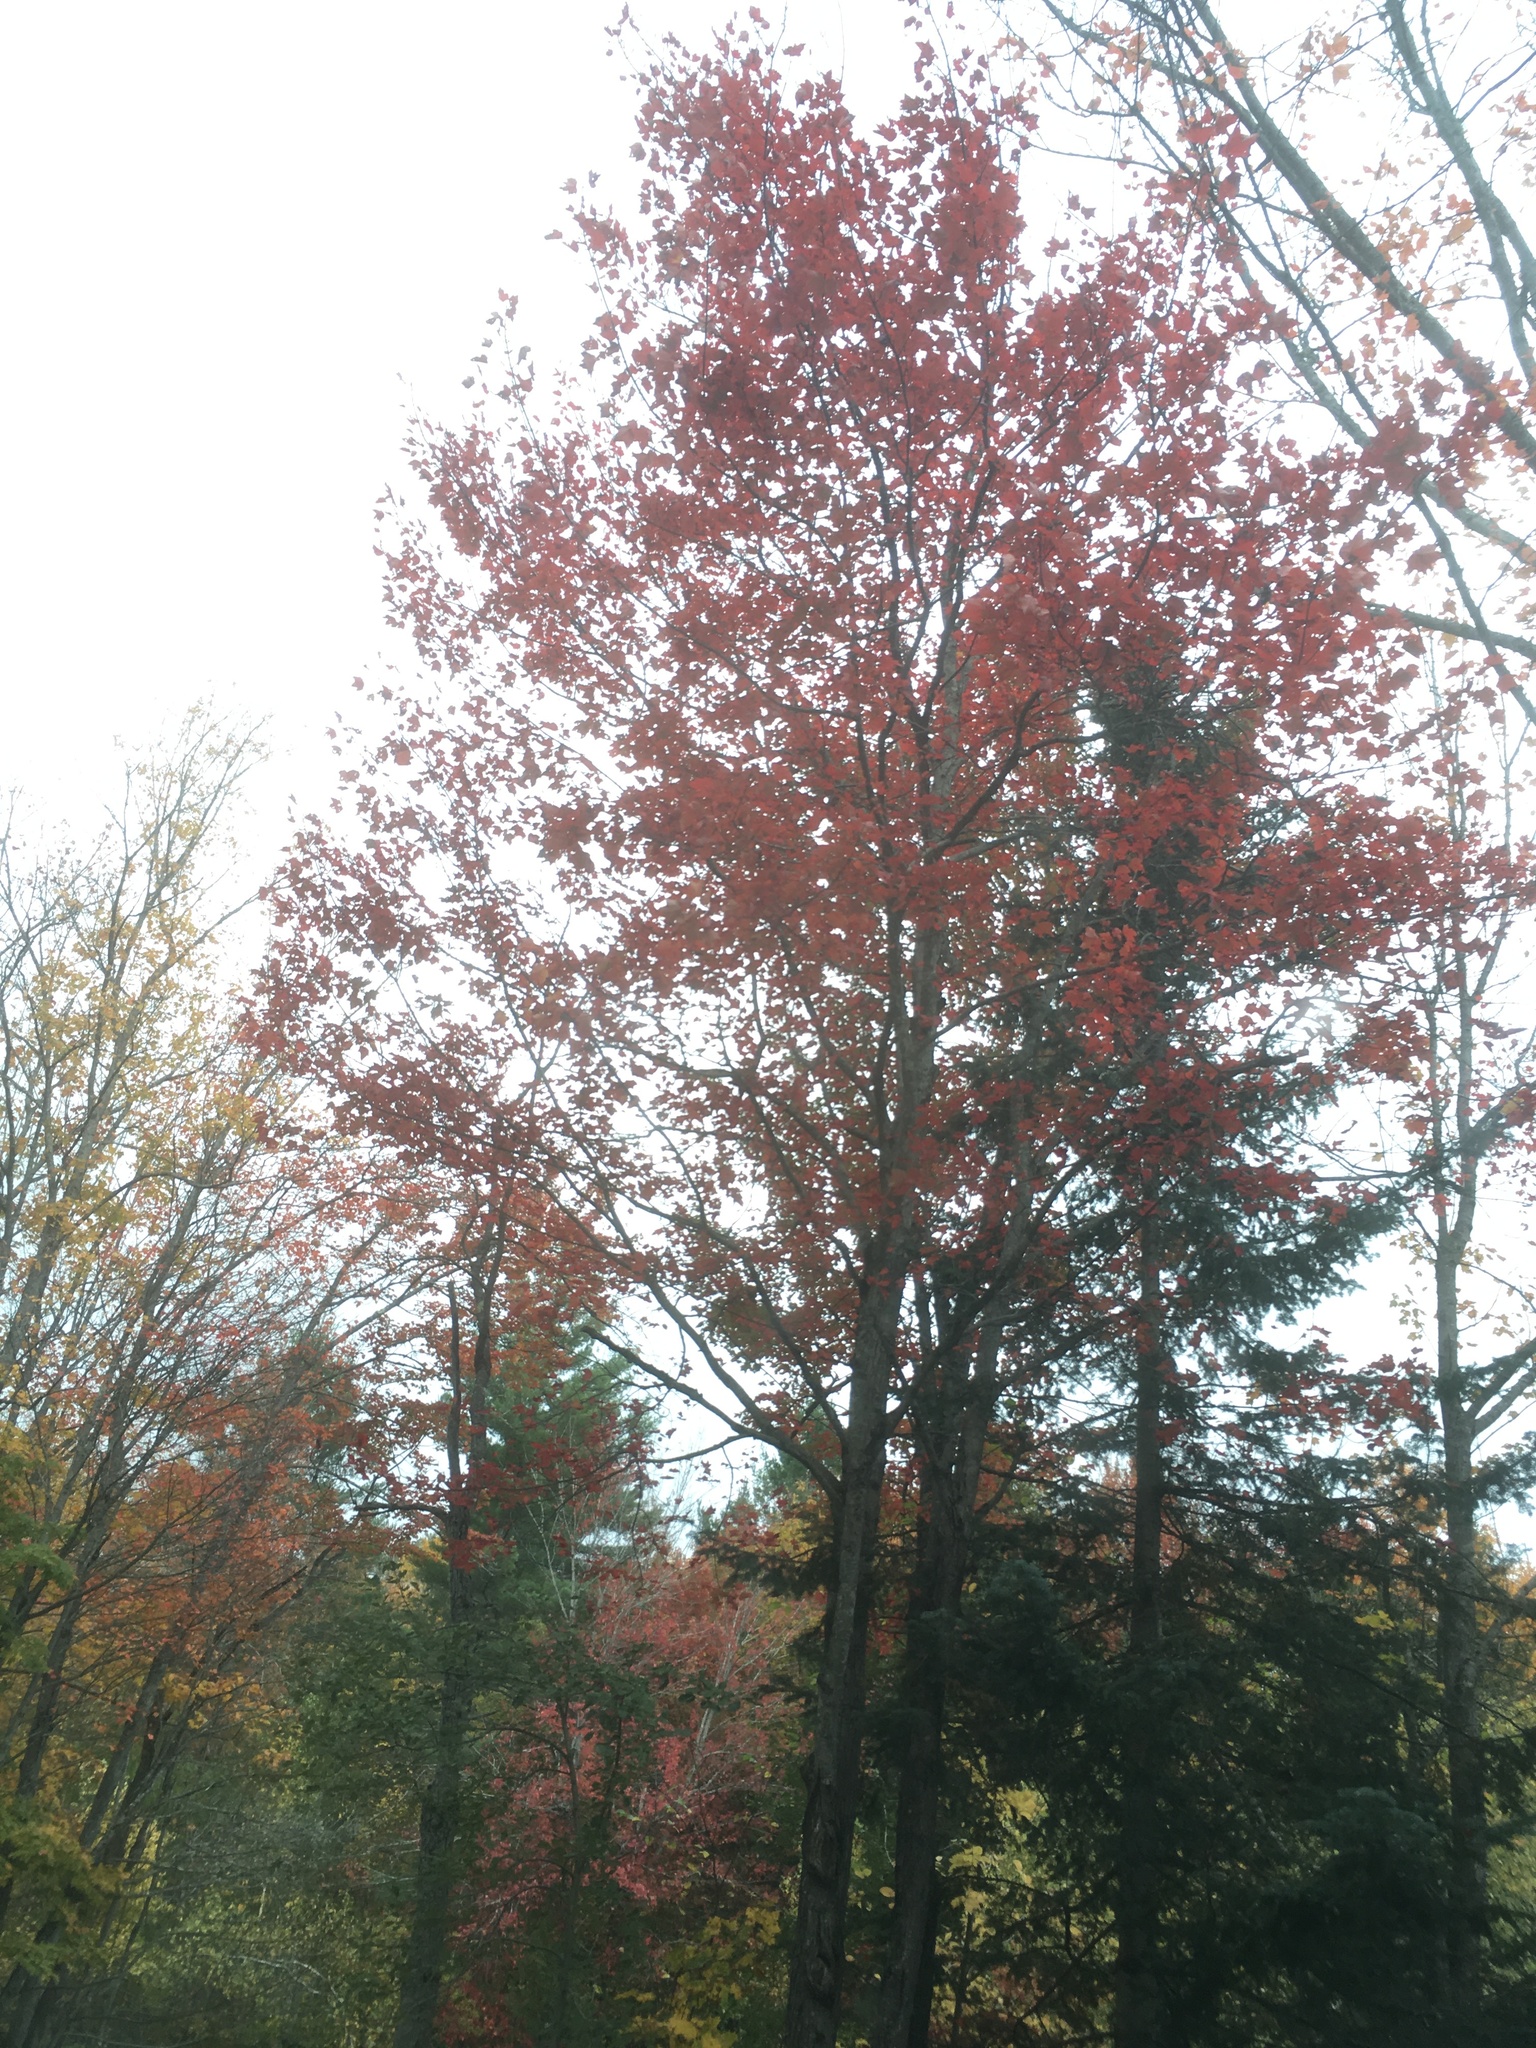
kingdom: Plantae
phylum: Tracheophyta
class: Magnoliopsida
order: Sapindales
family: Sapindaceae
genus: Acer
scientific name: Acer rubrum
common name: Red maple
